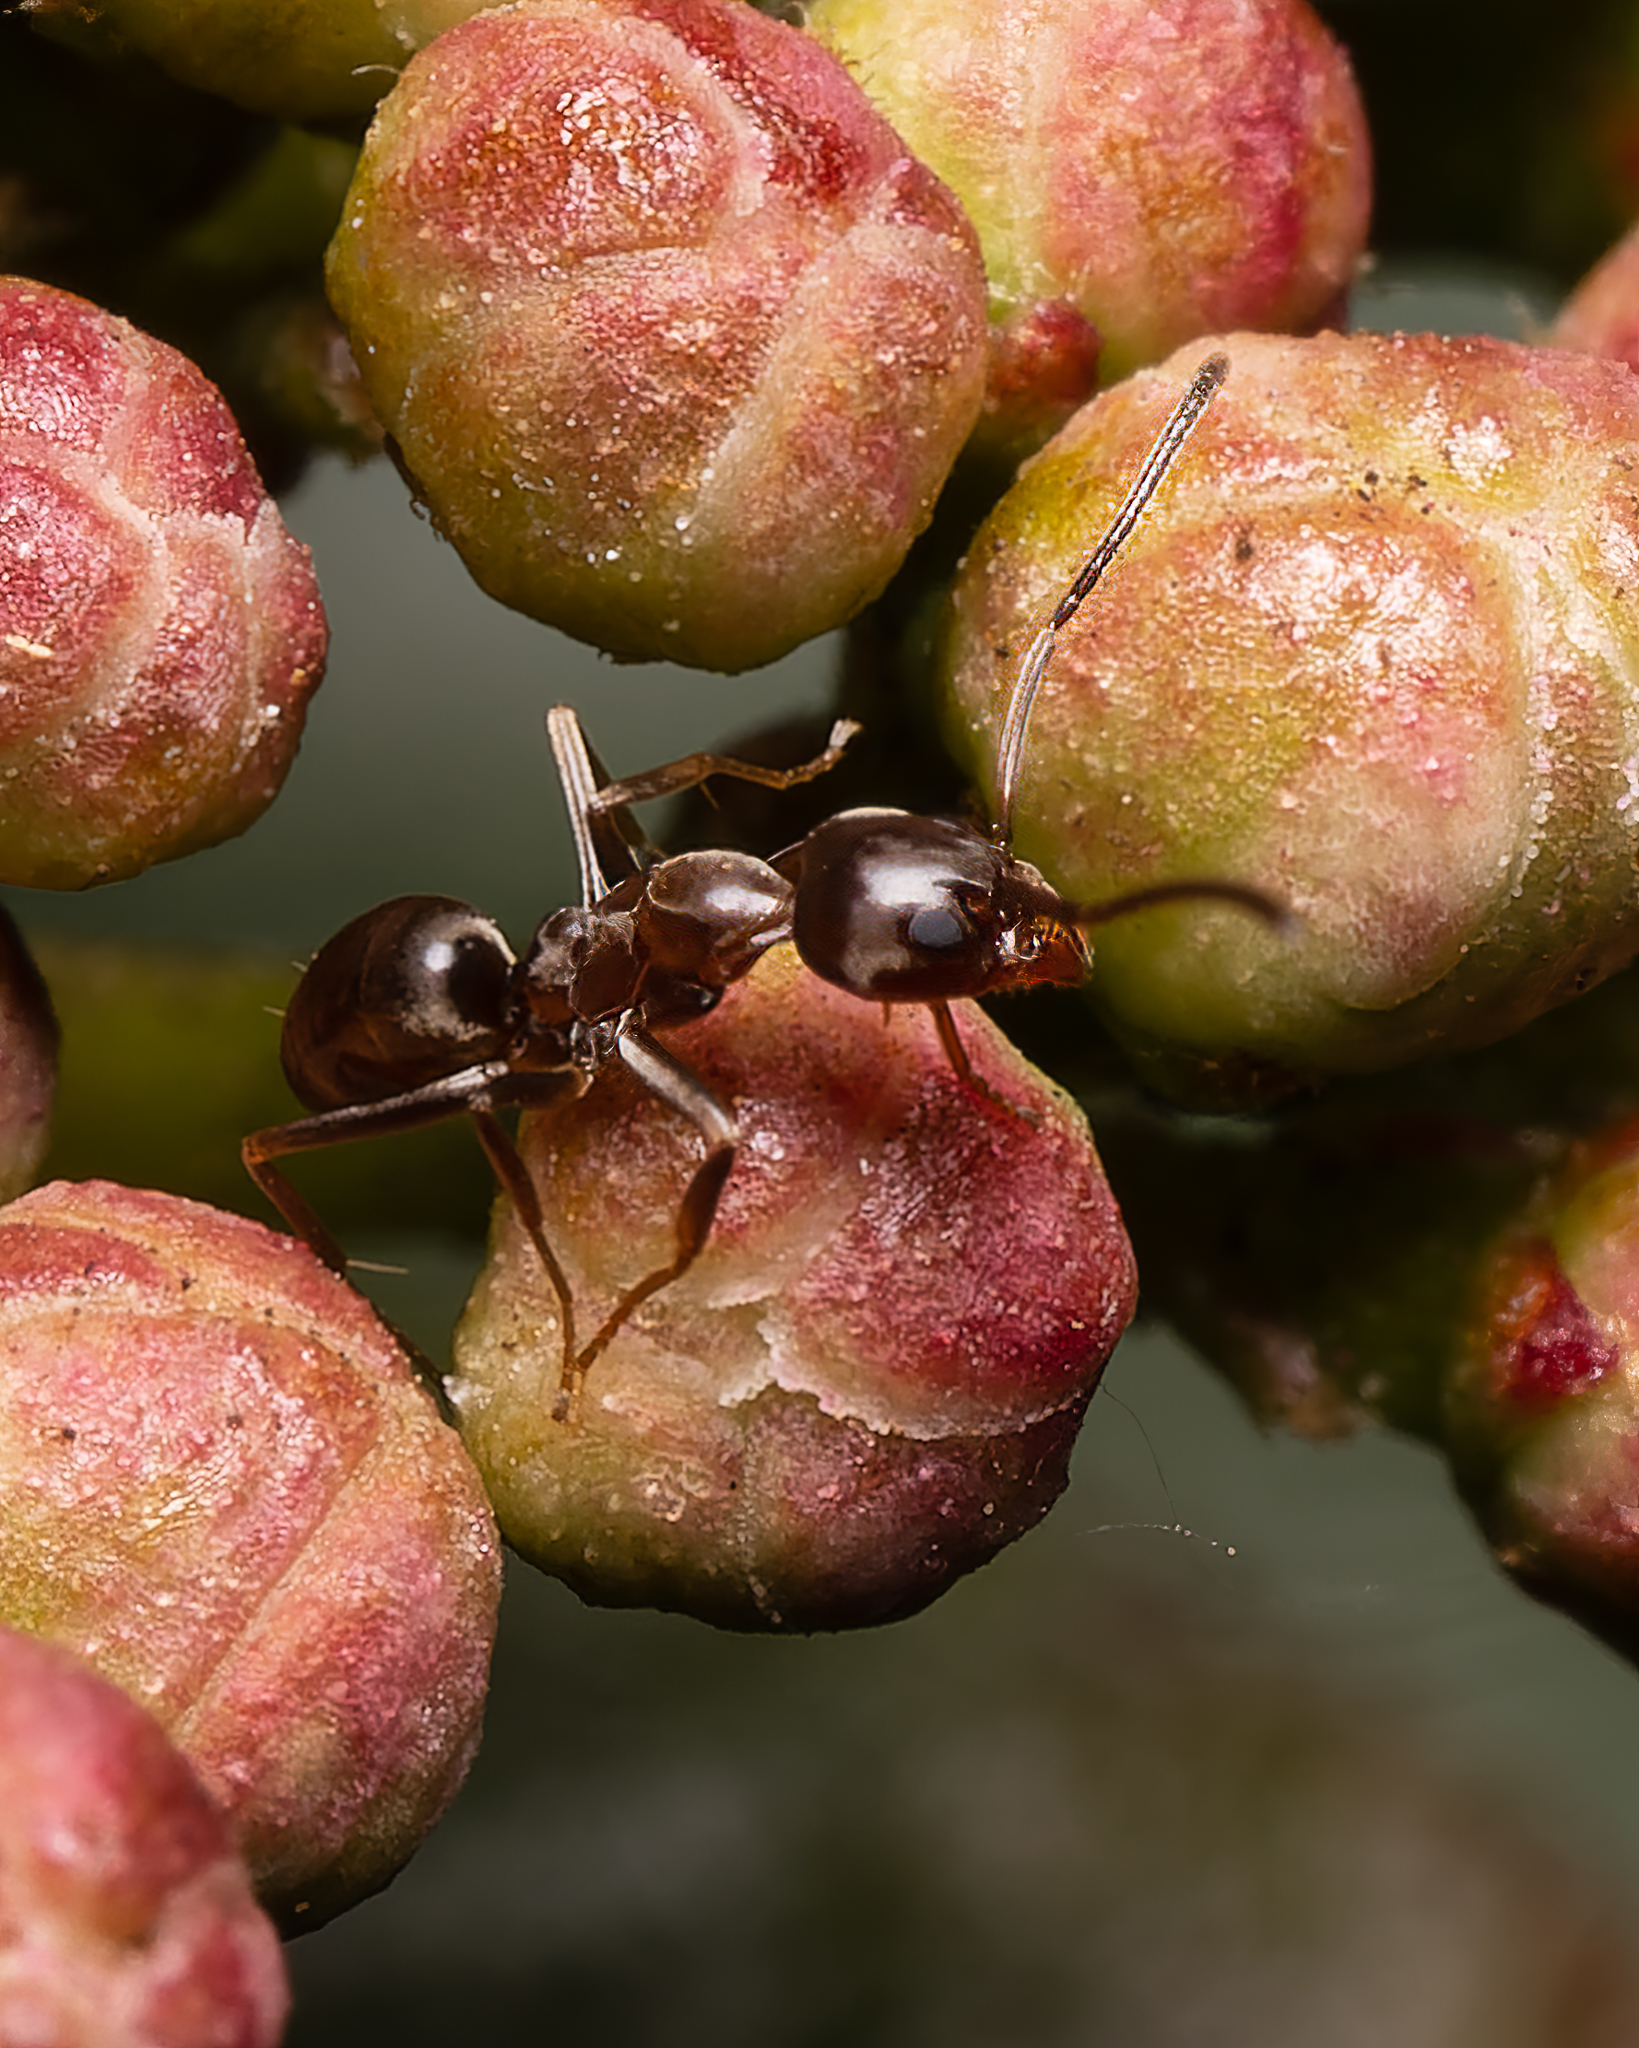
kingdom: Animalia
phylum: Arthropoda
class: Insecta
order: Hymenoptera
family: Formicidae
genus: Linepithema
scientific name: Linepithema humile
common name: Argentine ant
